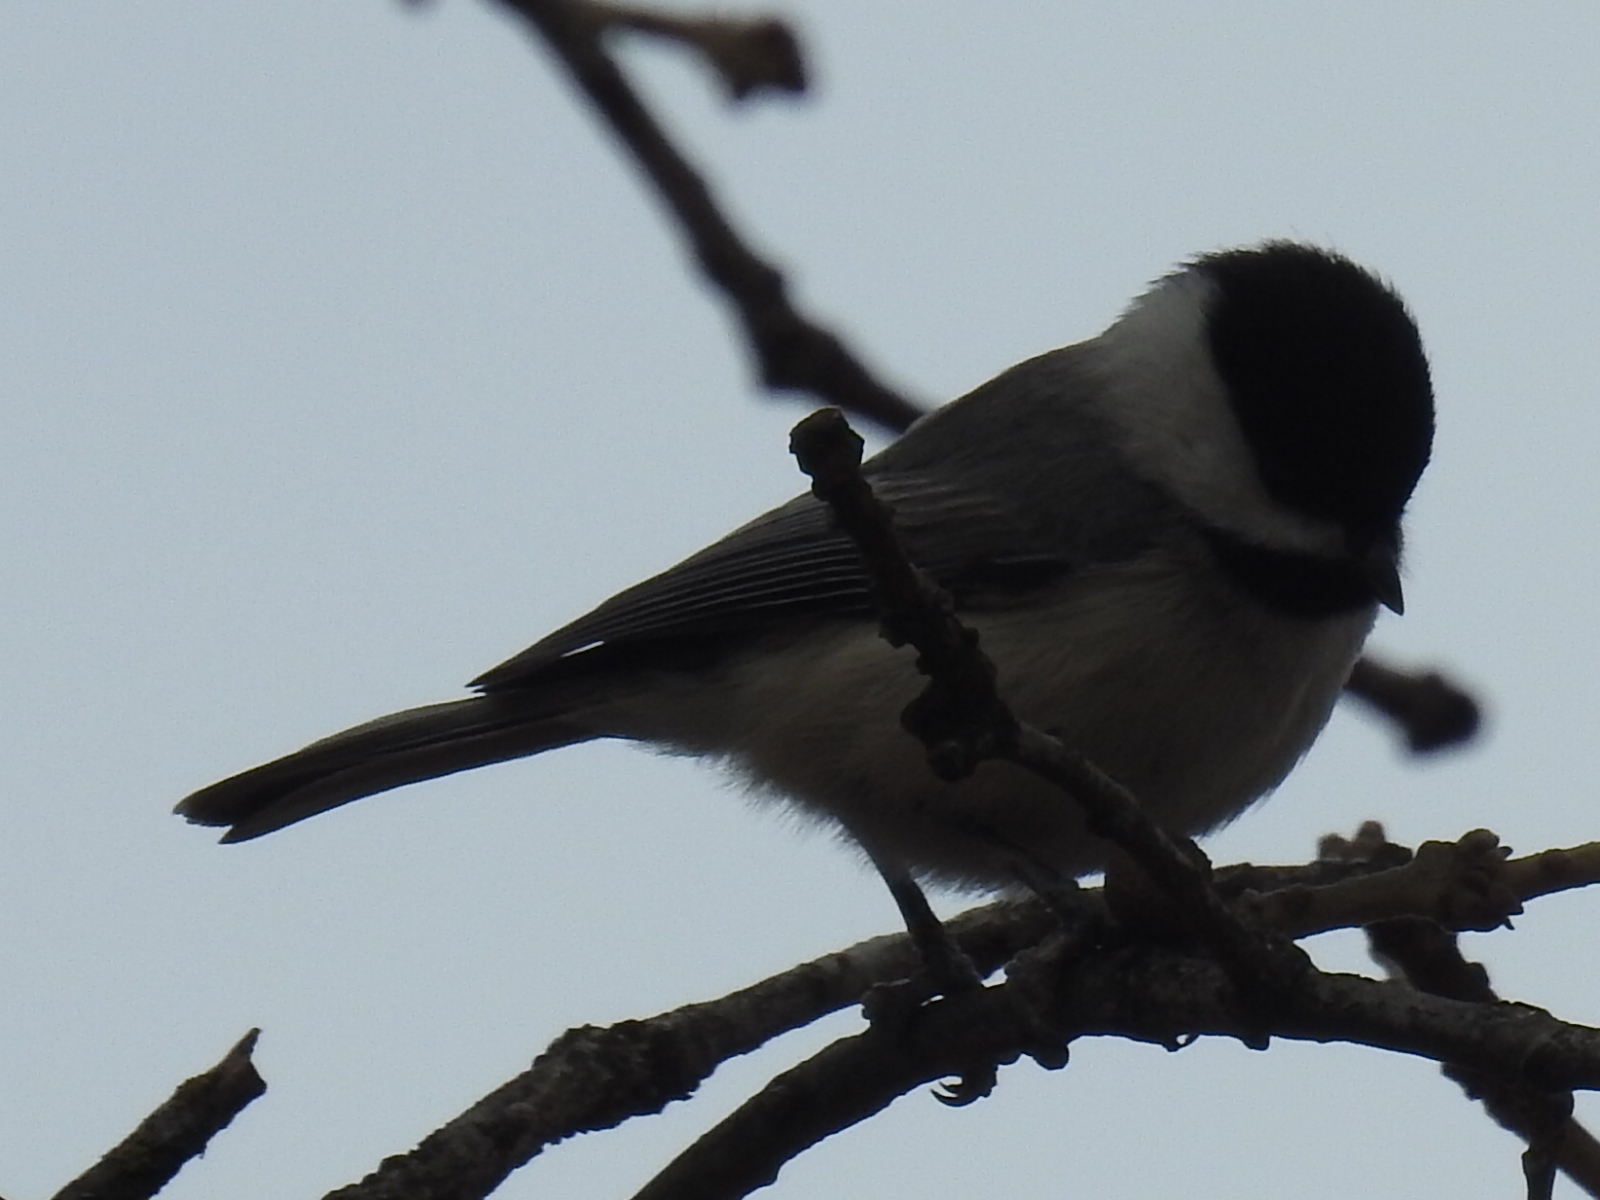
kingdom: Animalia
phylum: Chordata
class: Aves
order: Passeriformes
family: Paridae
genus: Poecile
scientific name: Poecile carolinensis
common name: Carolina chickadee
